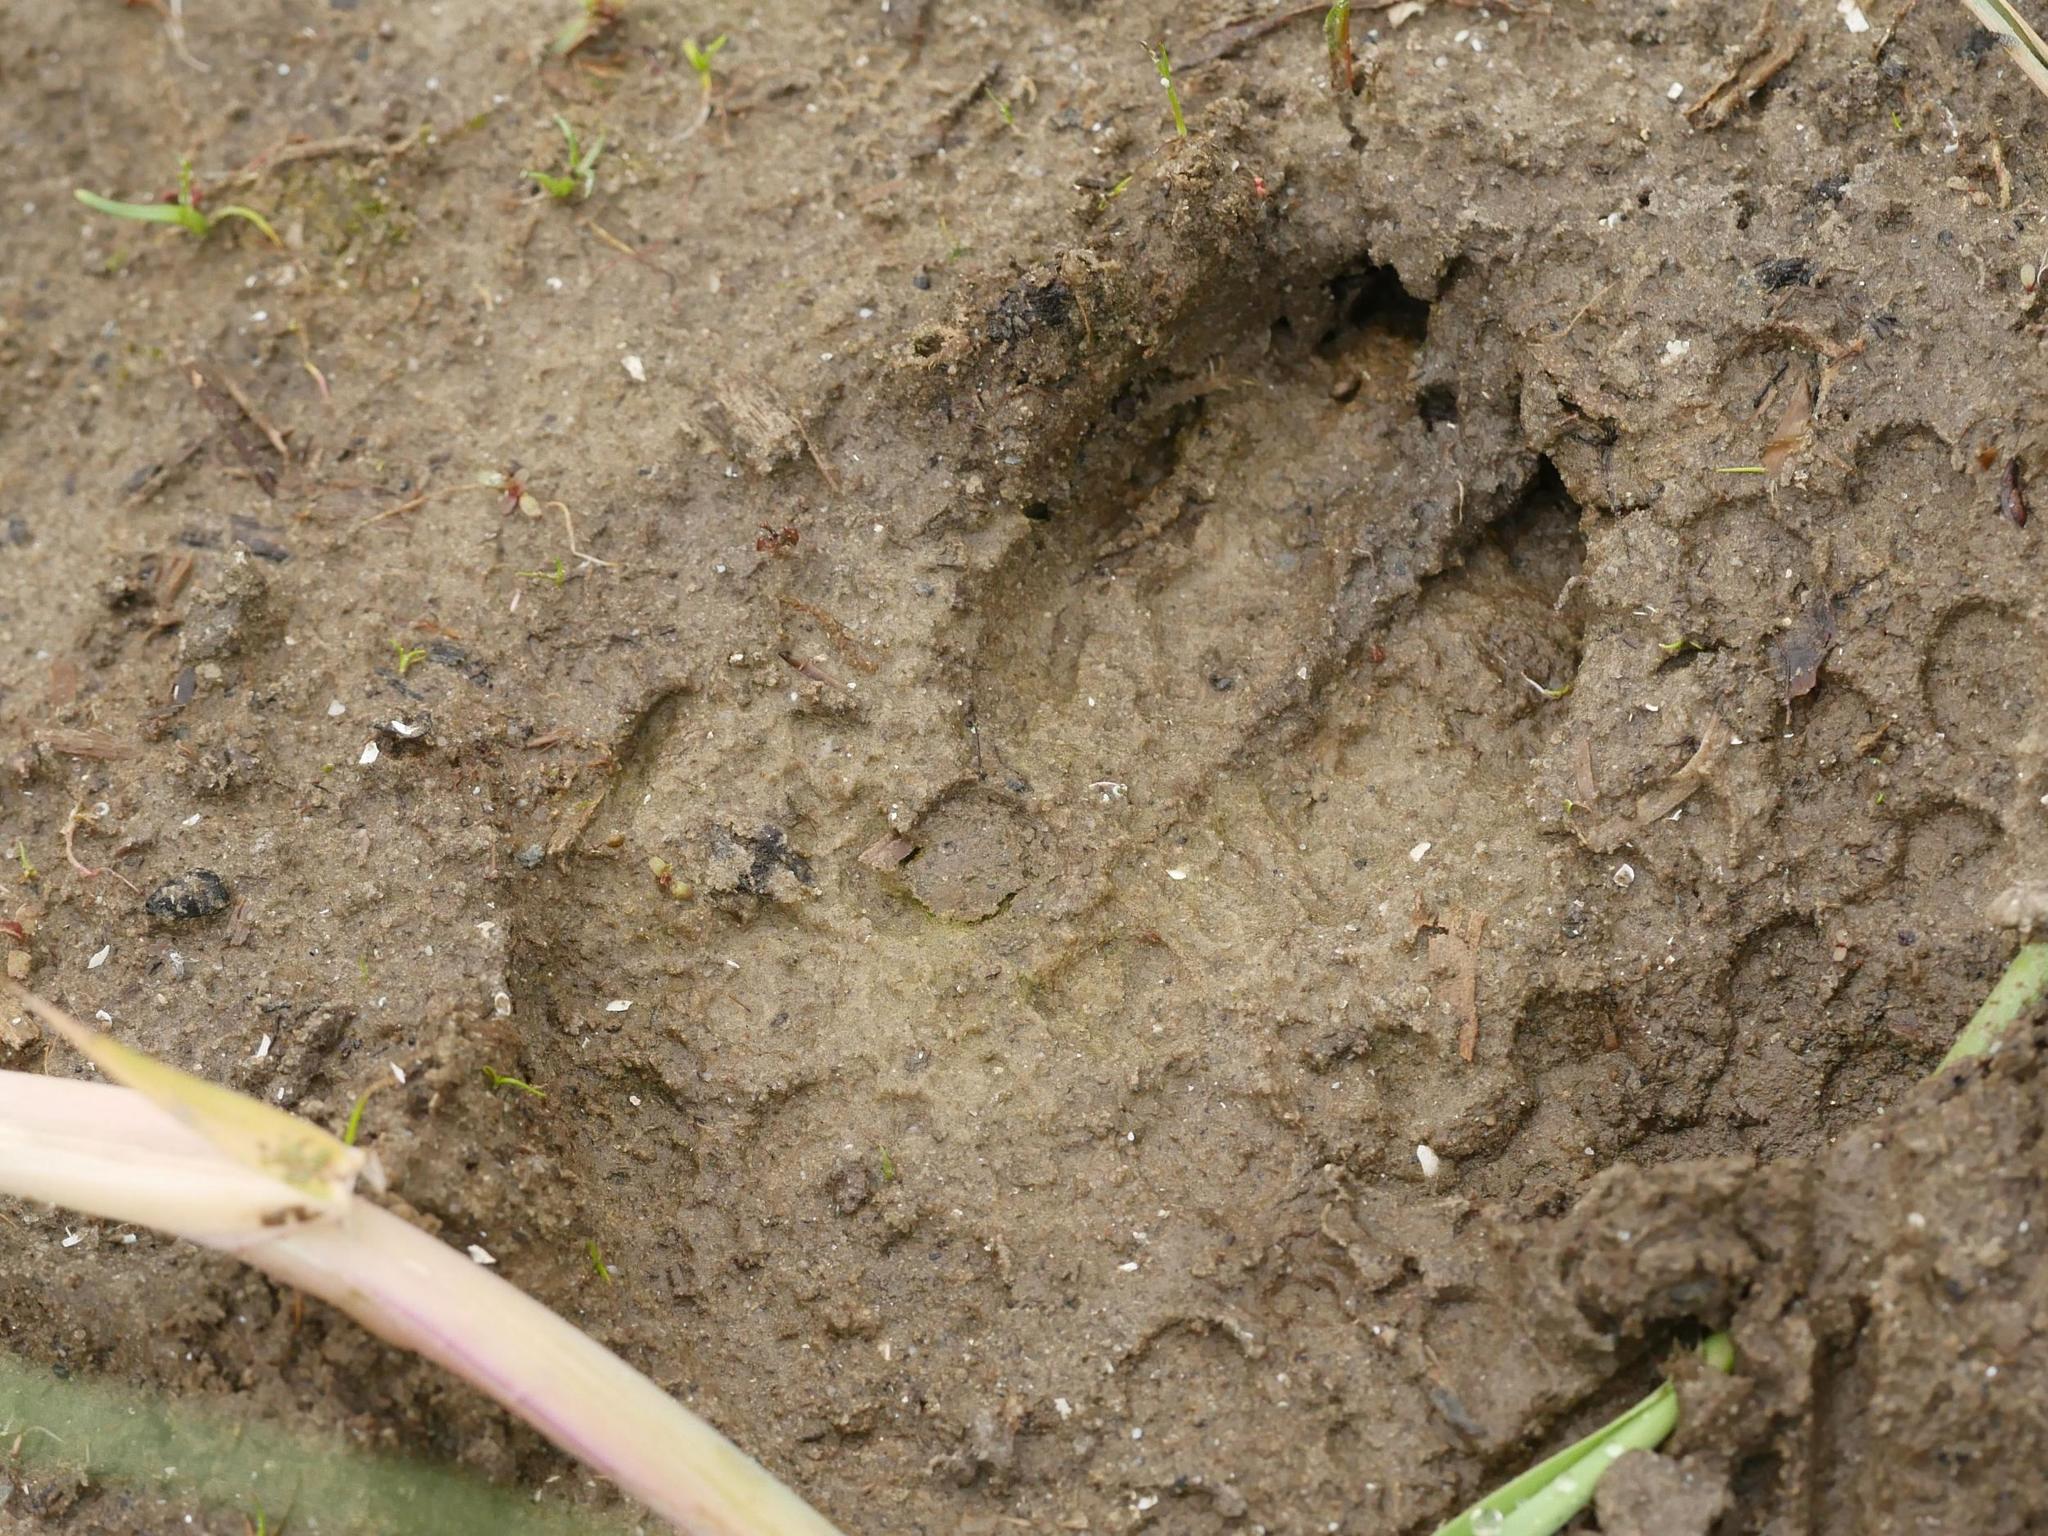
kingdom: Animalia
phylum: Chordata
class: Mammalia
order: Artiodactyla
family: Suidae
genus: Sus
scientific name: Sus scrofa
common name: Wild boar
